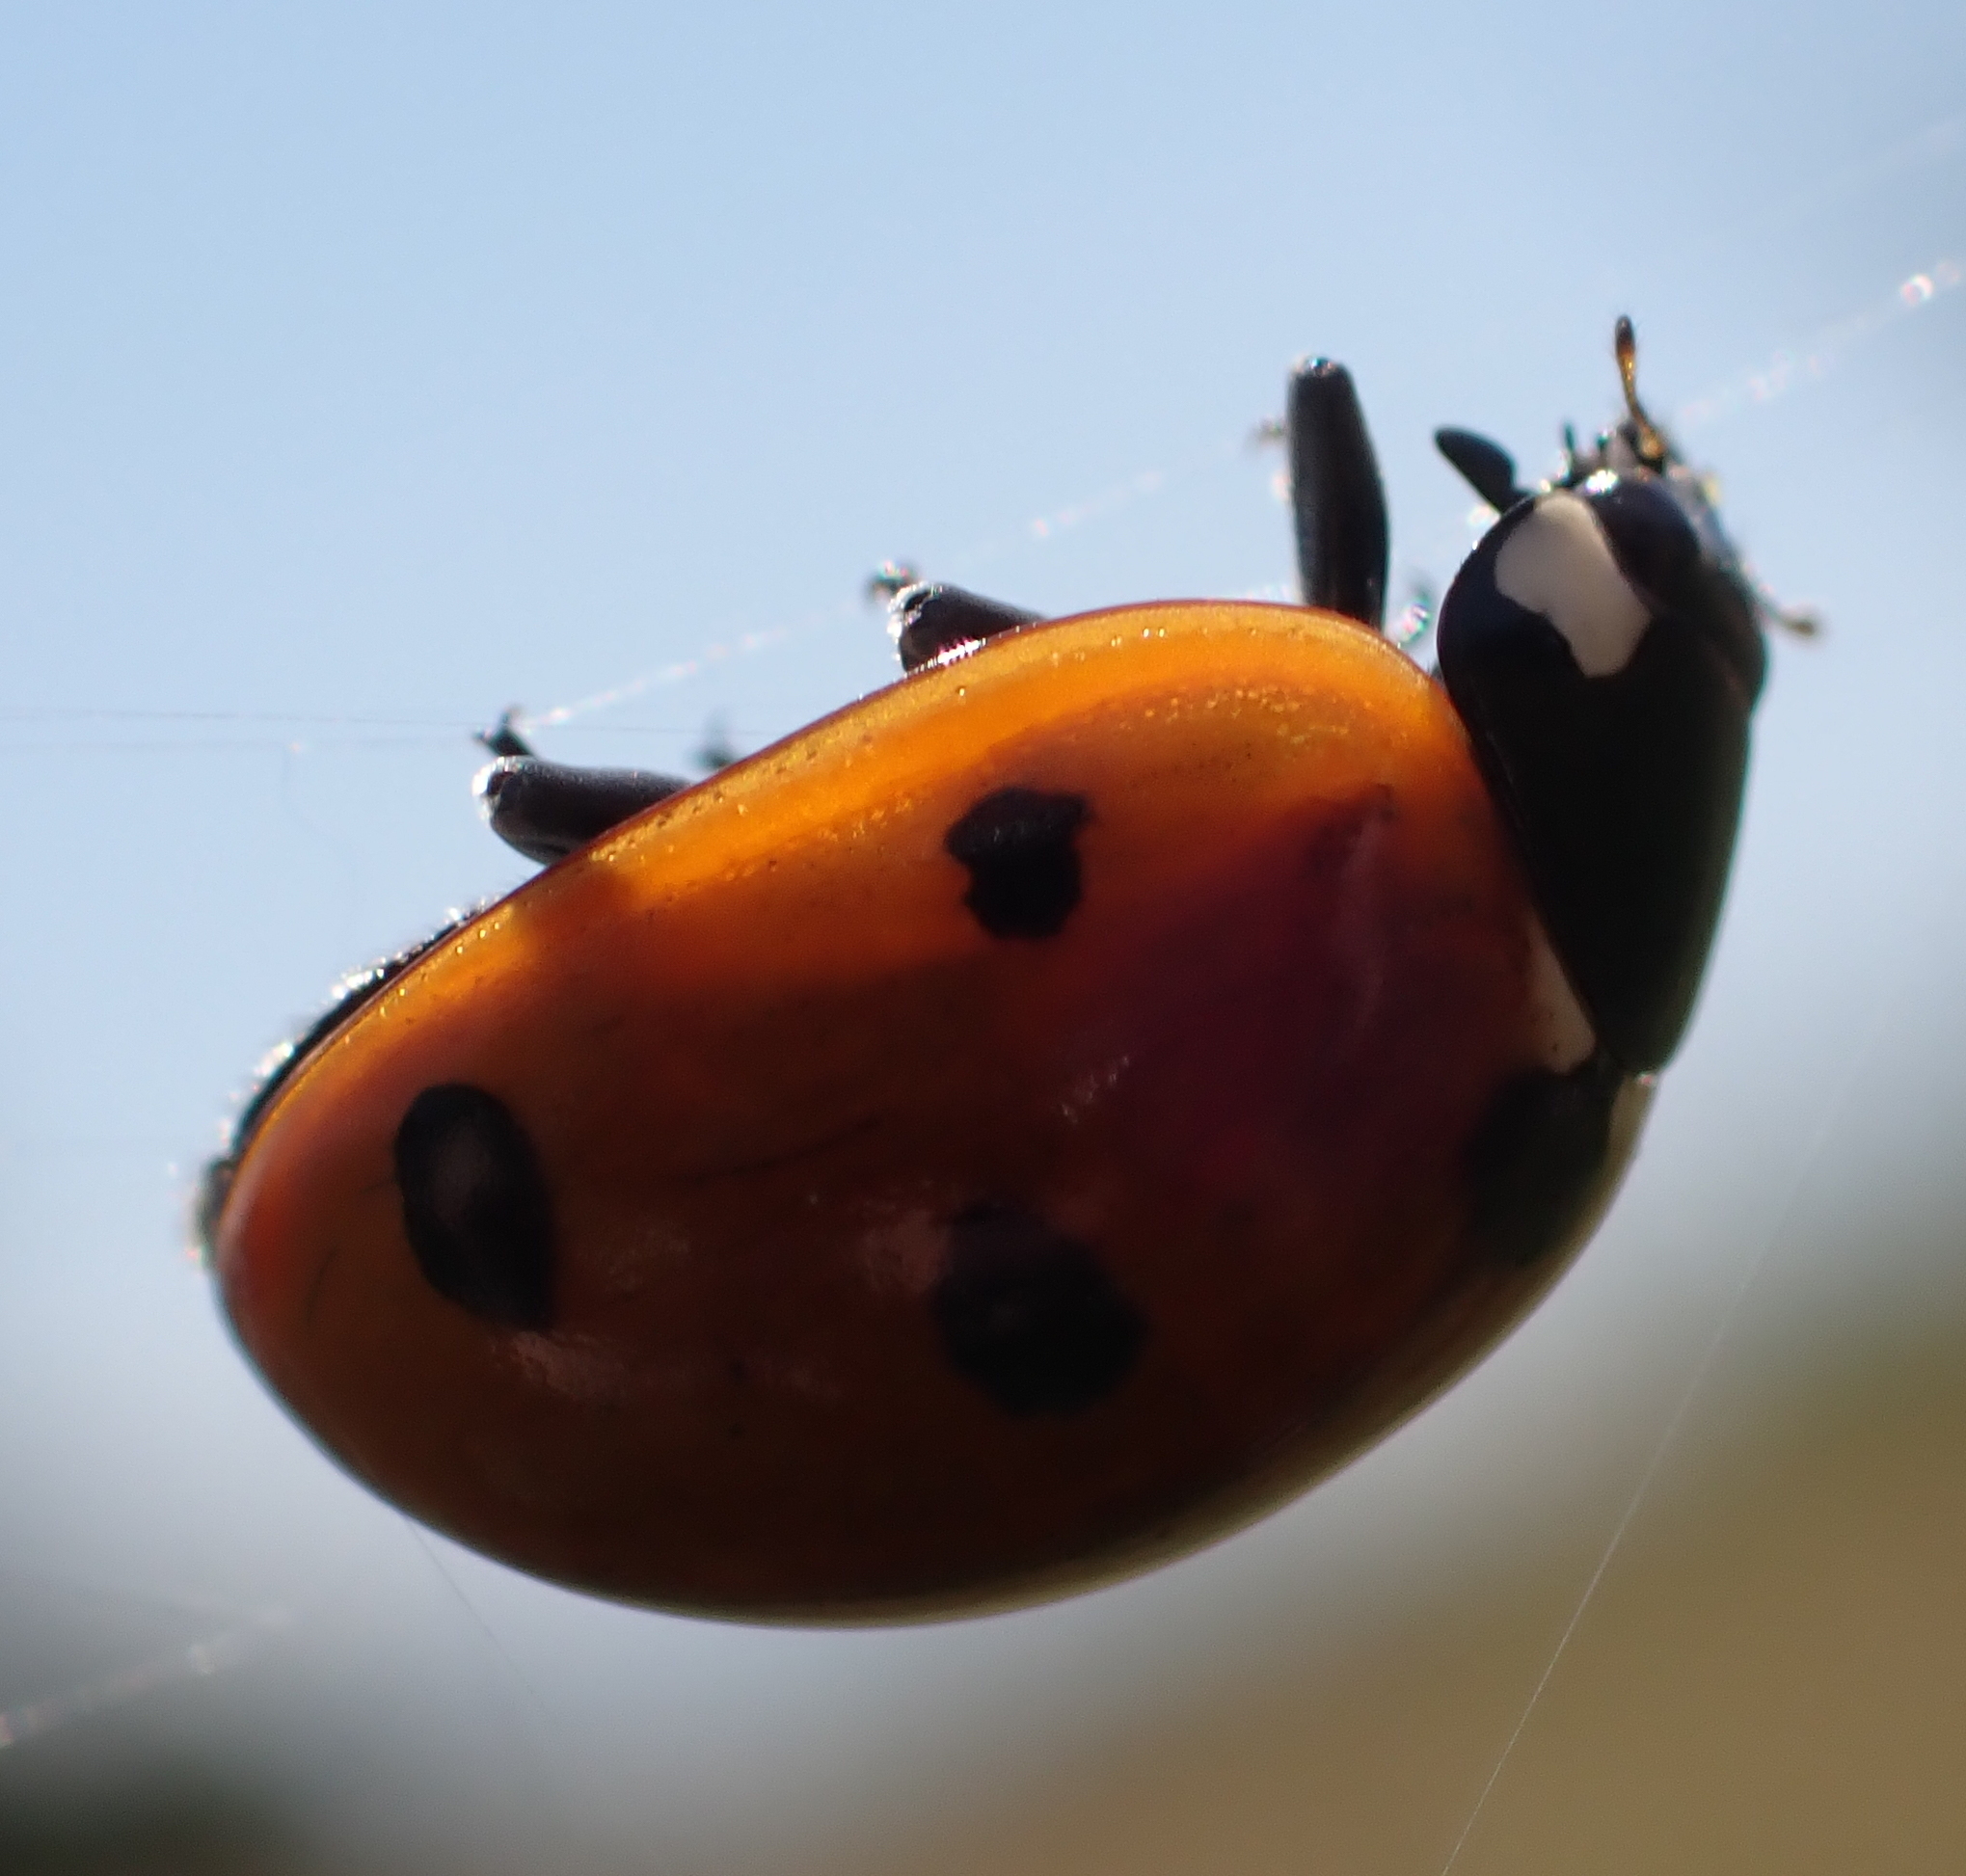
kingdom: Animalia
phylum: Arthropoda
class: Insecta
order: Coleoptera
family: Coccinellidae
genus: Coccinella
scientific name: Coccinella septempunctata
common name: Sevenspotted lady beetle
